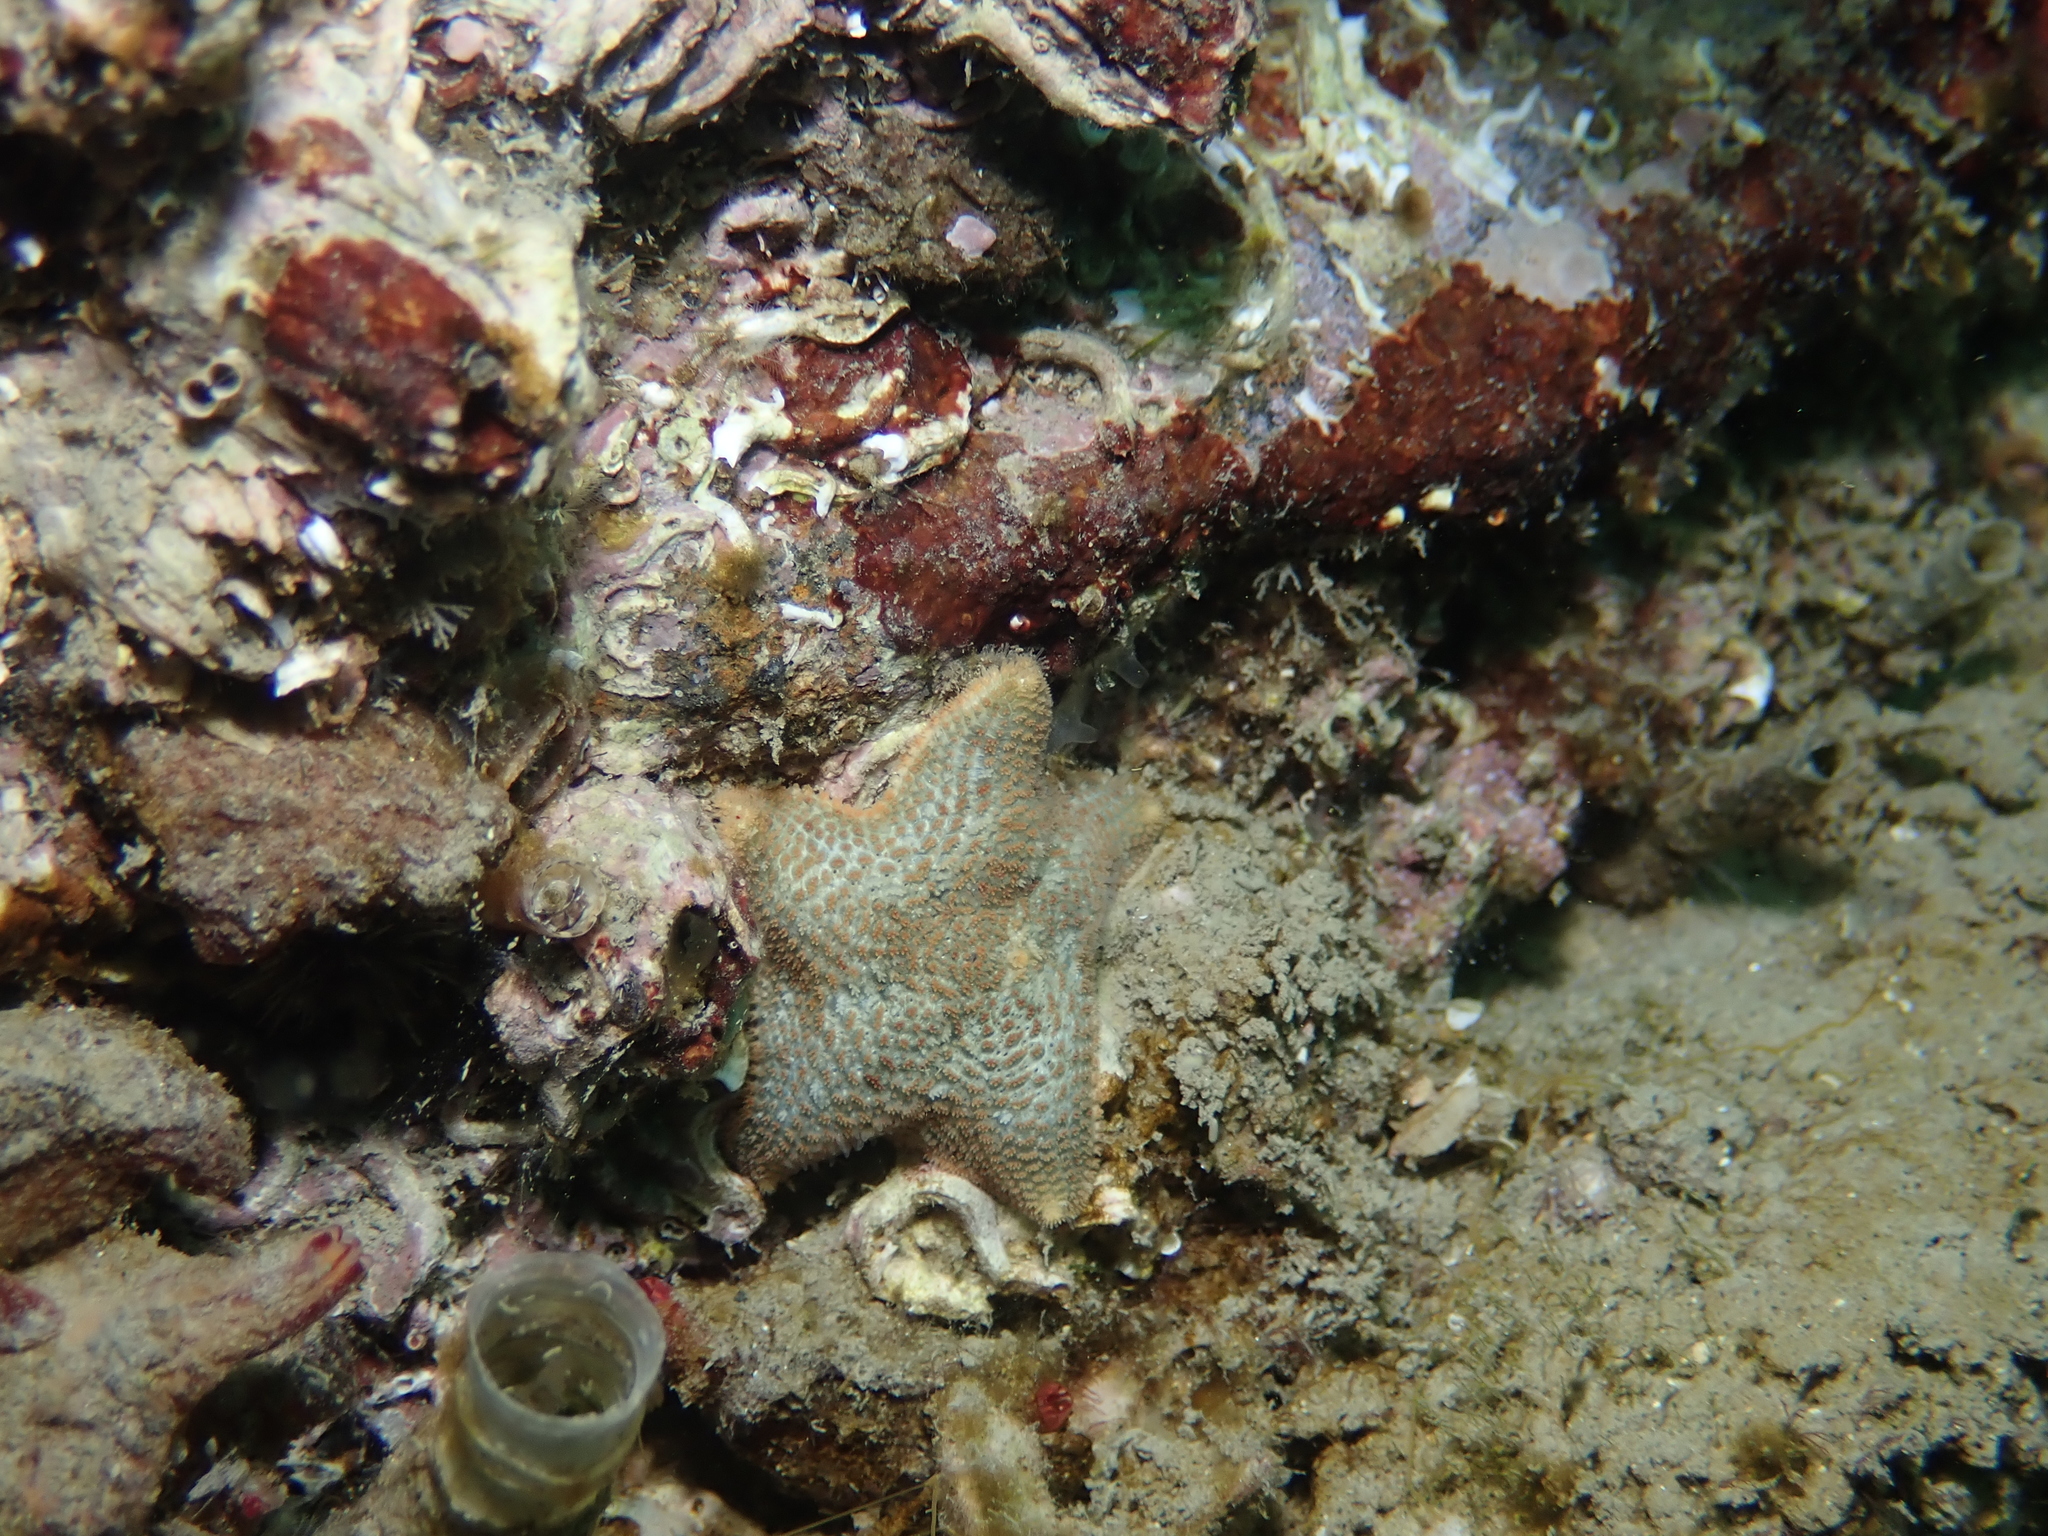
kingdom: Animalia
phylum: Echinodermata
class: Asteroidea
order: Valvatida
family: Asterinidae
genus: Asterina
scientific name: Asterina gibbosa
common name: Cushion star
